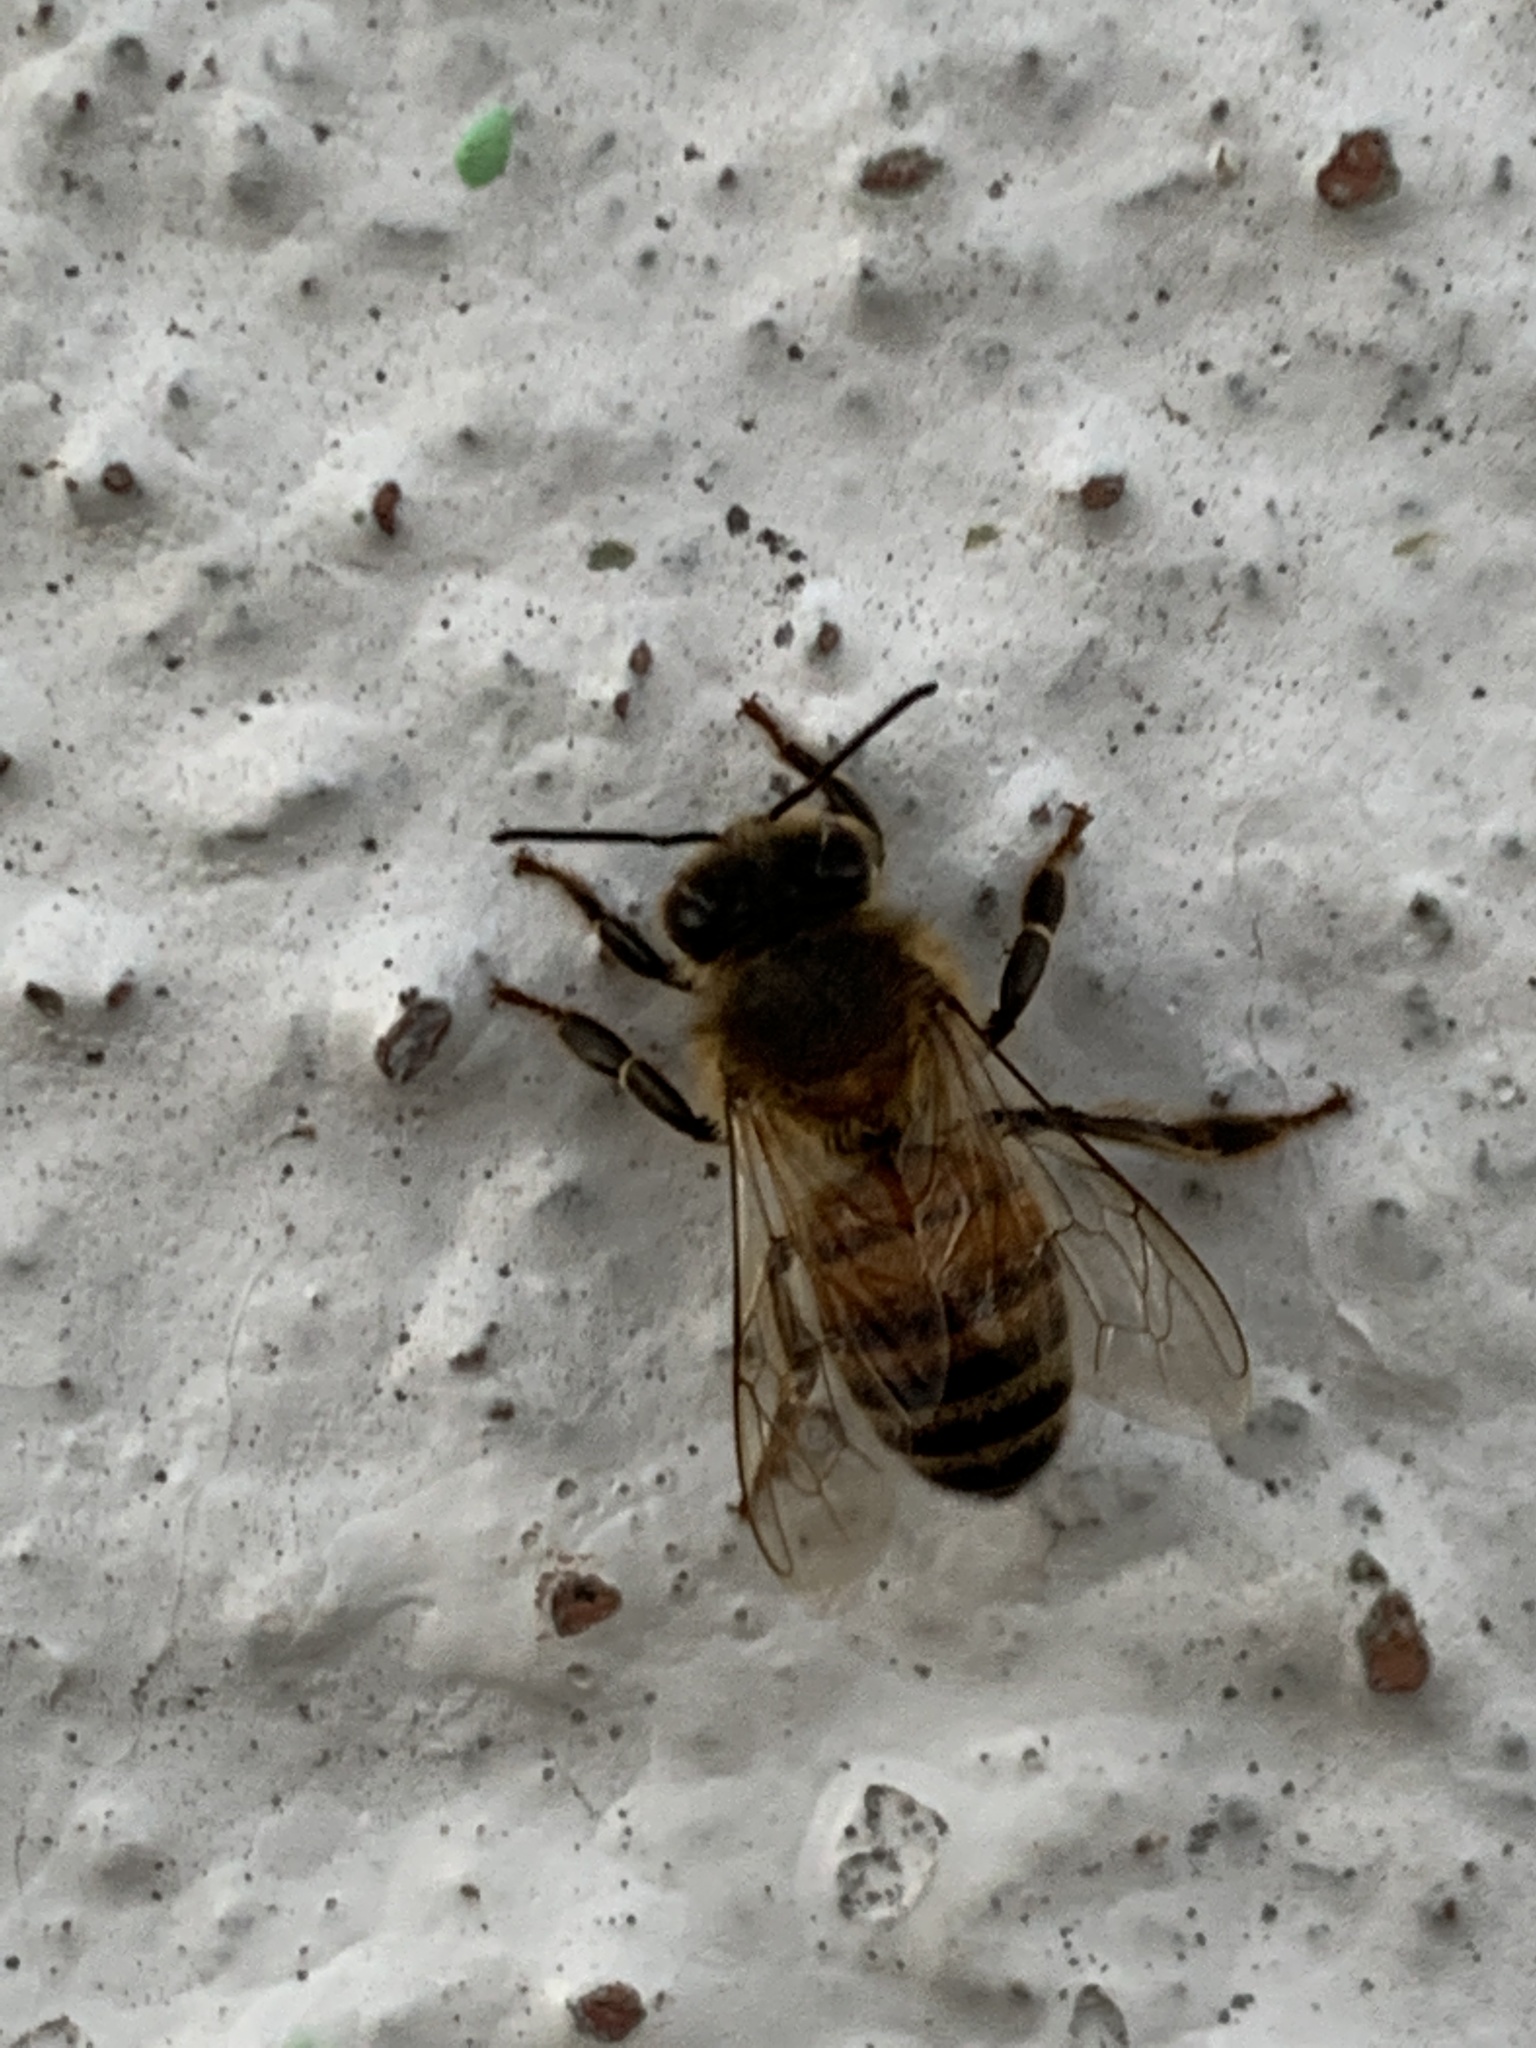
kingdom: Animalia
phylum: Arthropoda
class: Insecta
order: Hymenoptera
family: Apidae
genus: Apis
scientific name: Apis mellifera
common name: Honey bee
